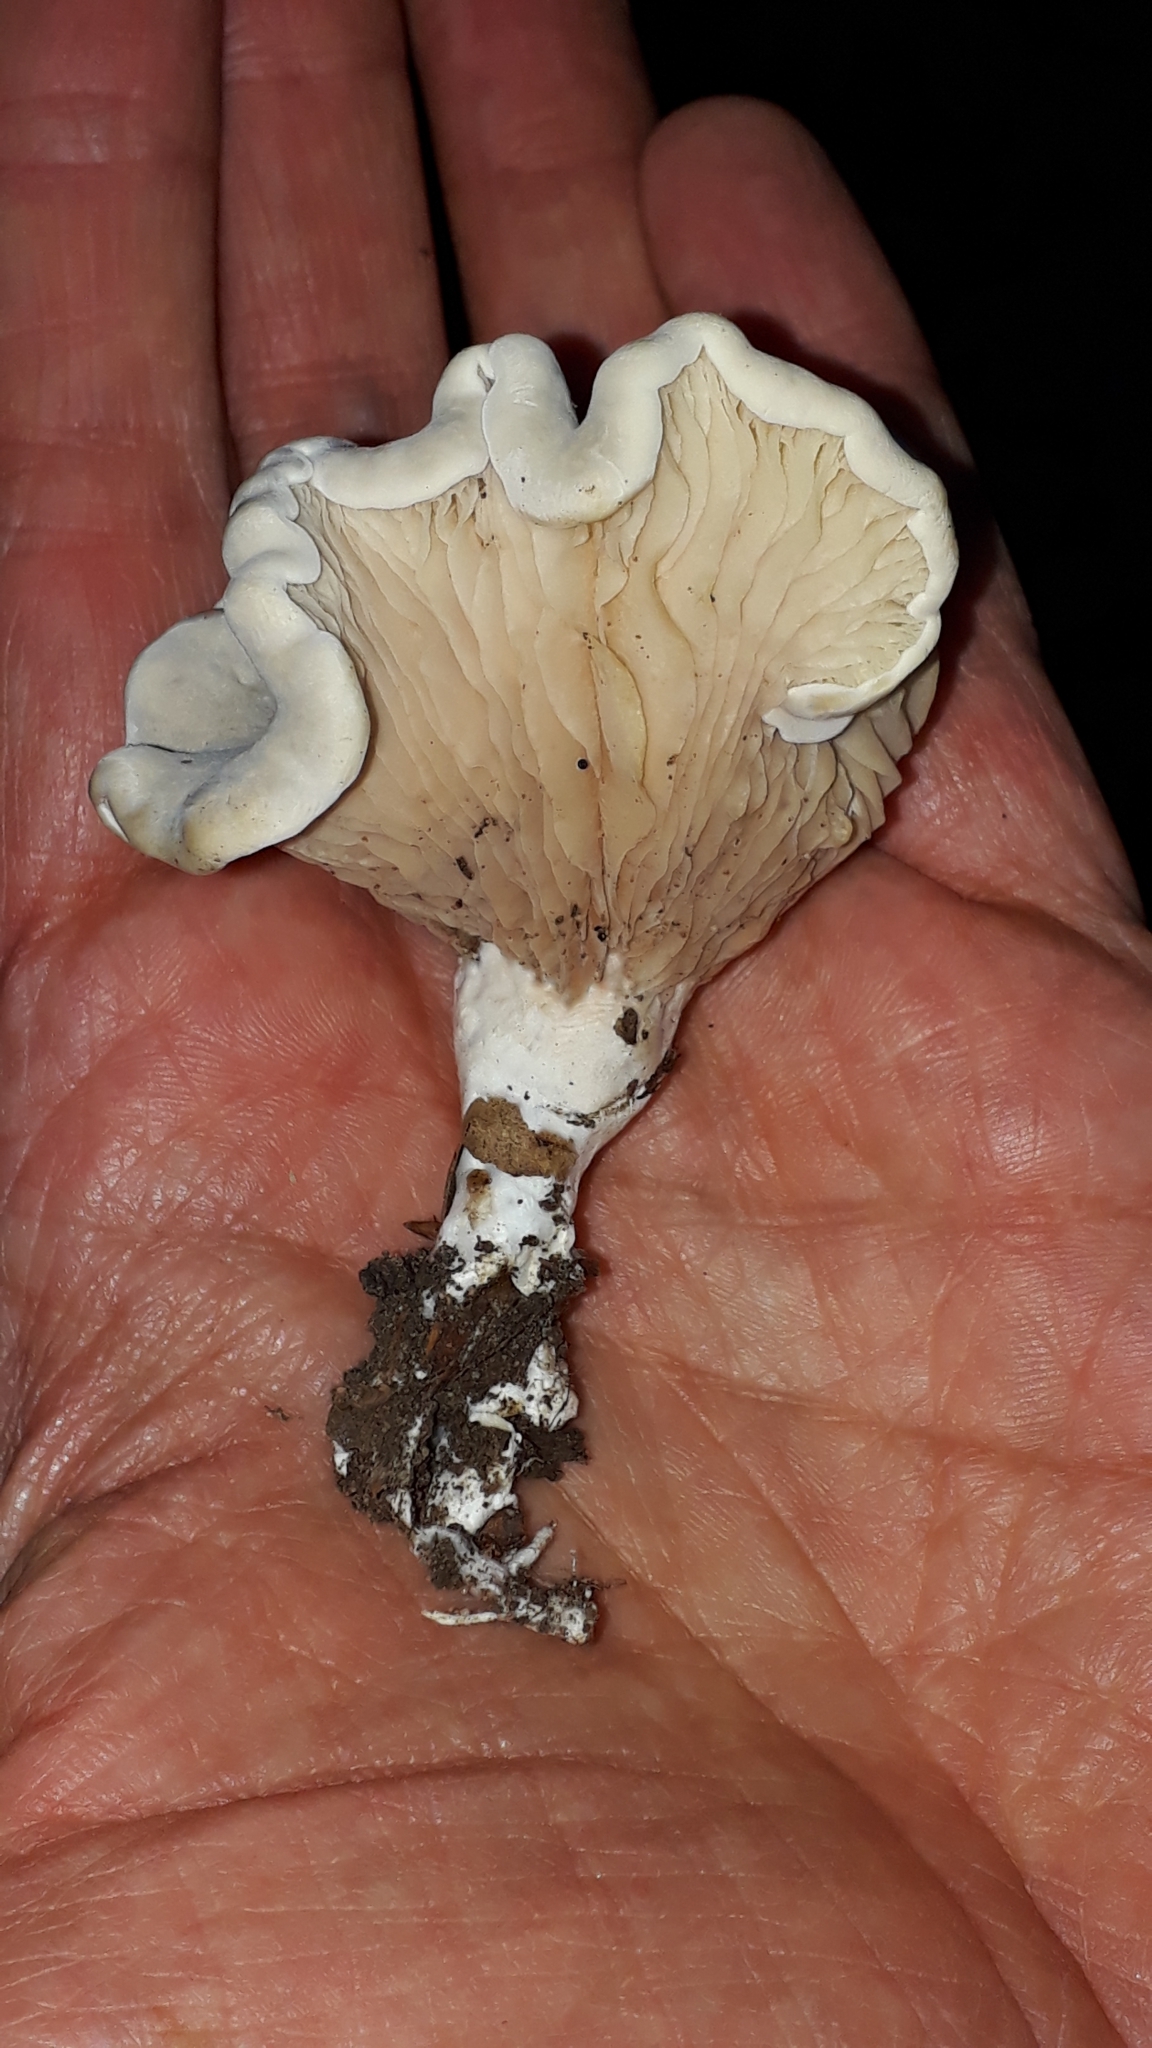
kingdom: Fungi
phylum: Basidiomycota
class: Agaricomycetes
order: Agaricales
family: Entolomataceae
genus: Clitopilus
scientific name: Clitopilus prunulus
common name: The miller
